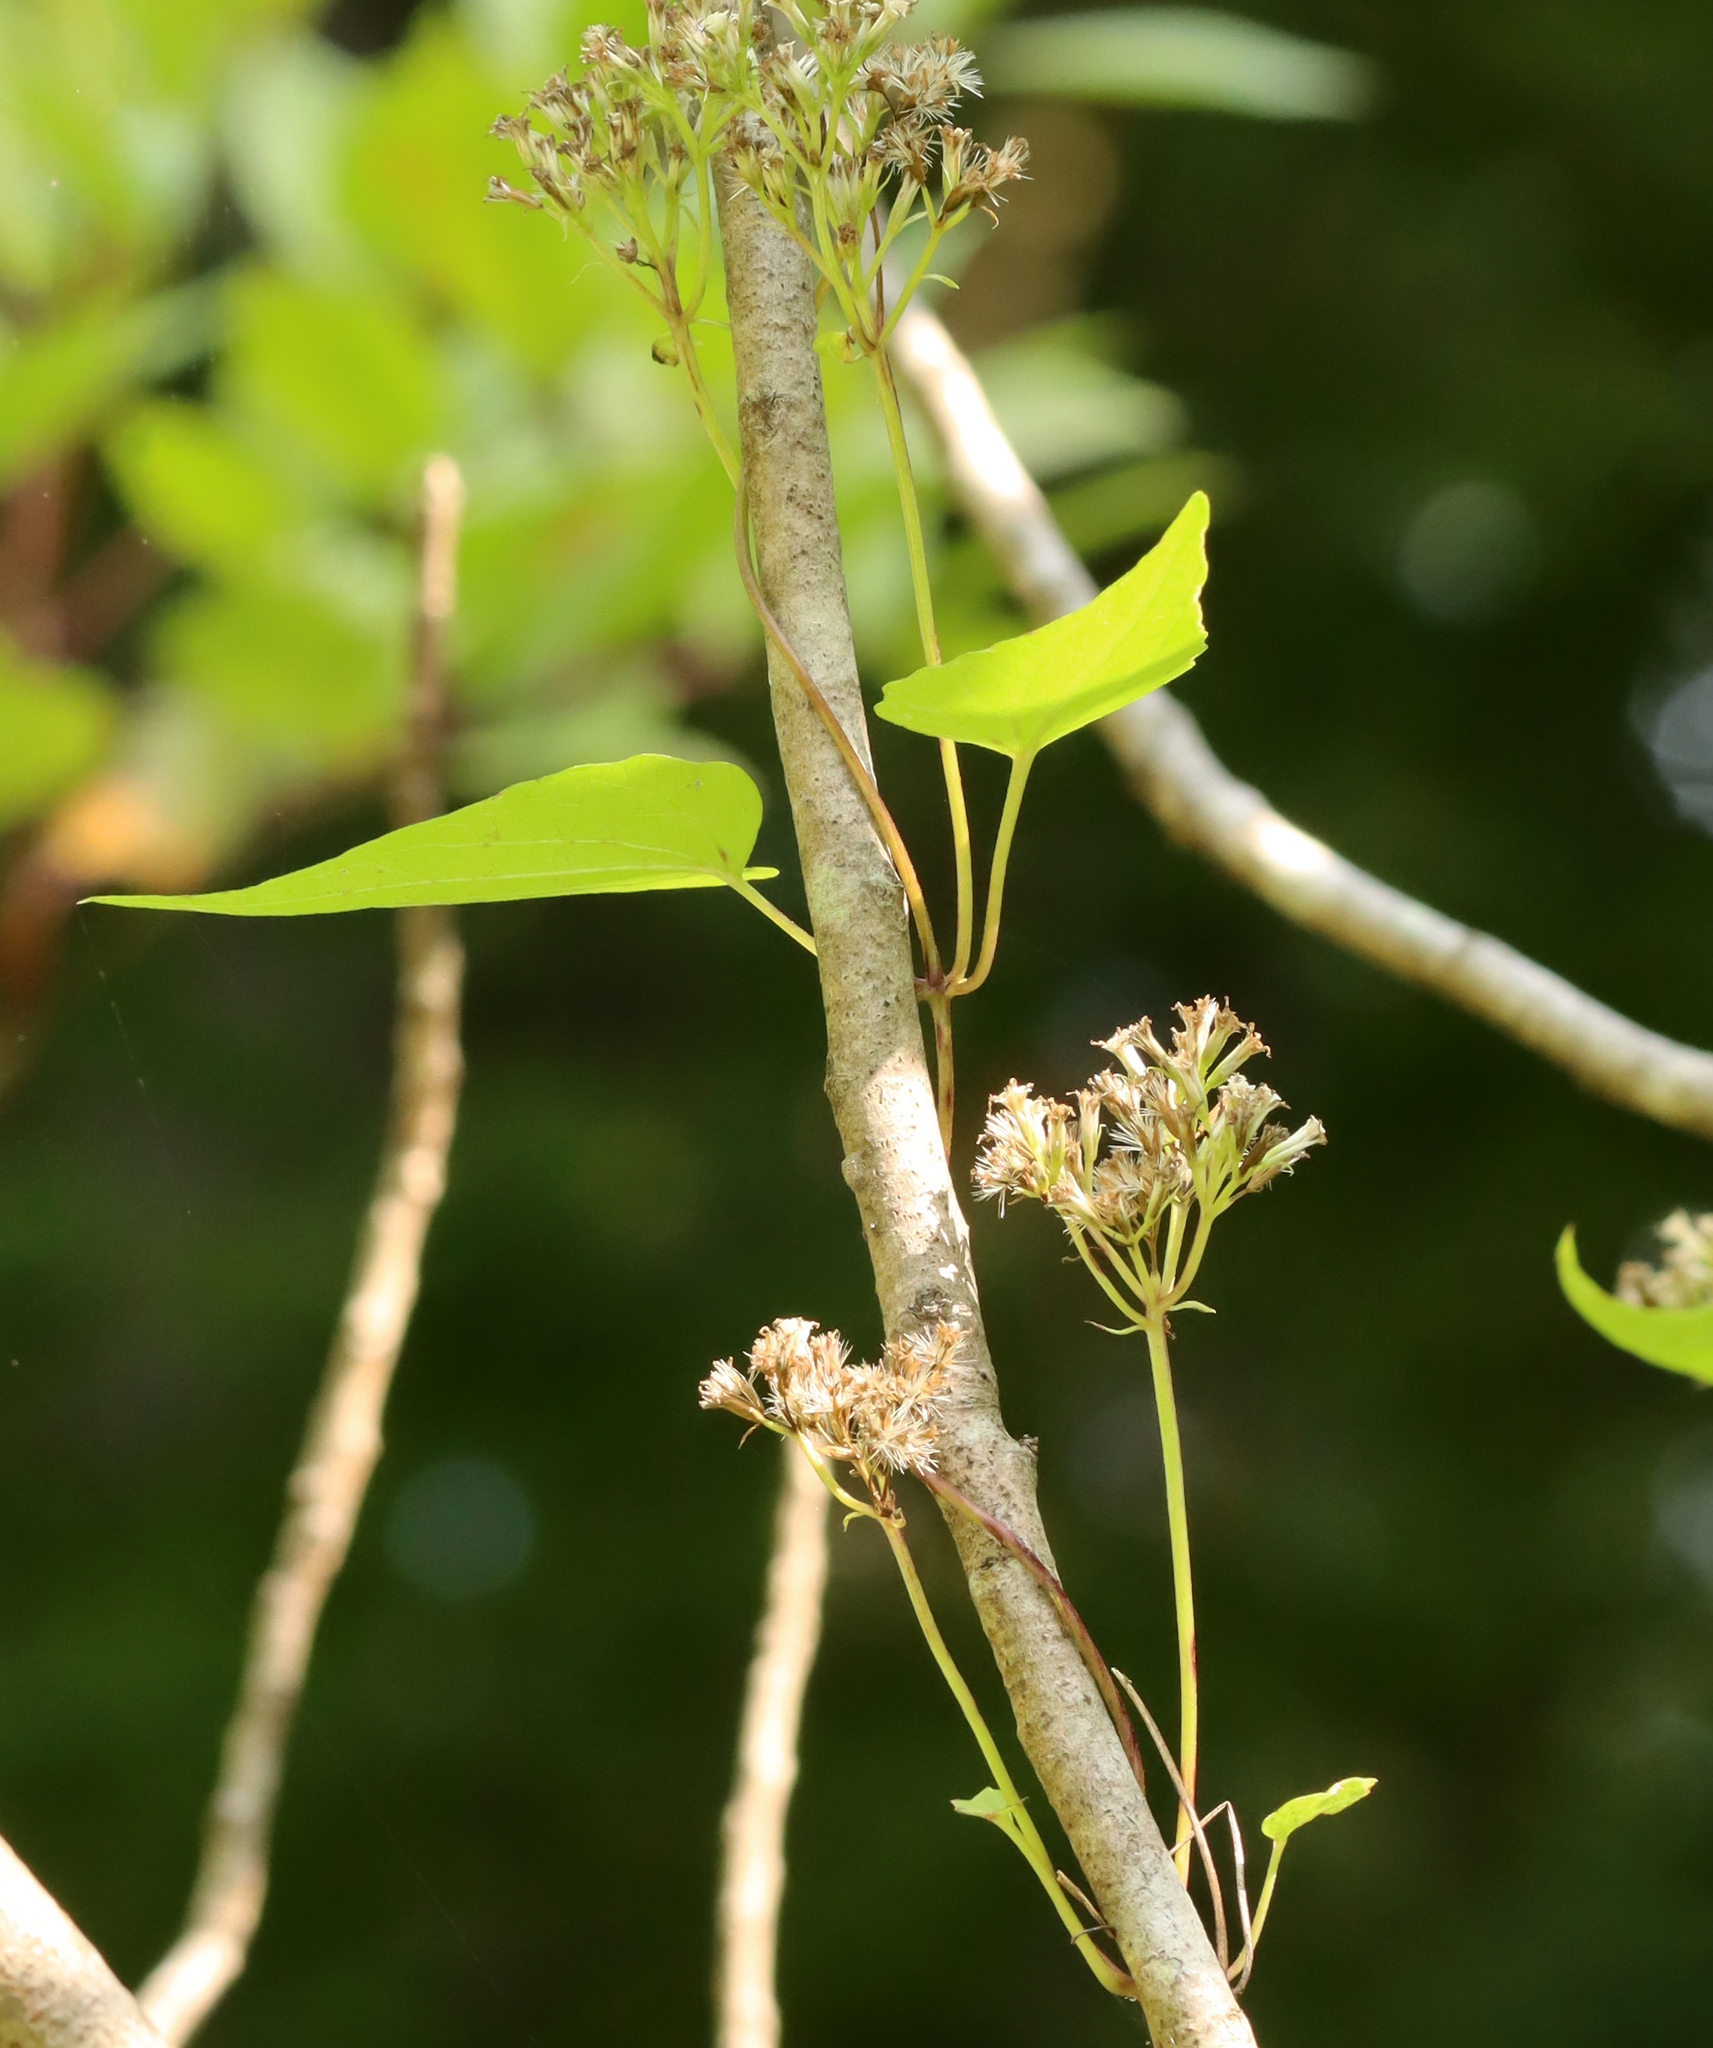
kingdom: Plantae
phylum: Tracheophyta
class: Magnoliopsida
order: Asterales
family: Asteraceae
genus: Mikania
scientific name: Mikania scandens
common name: Climbing hempvine
